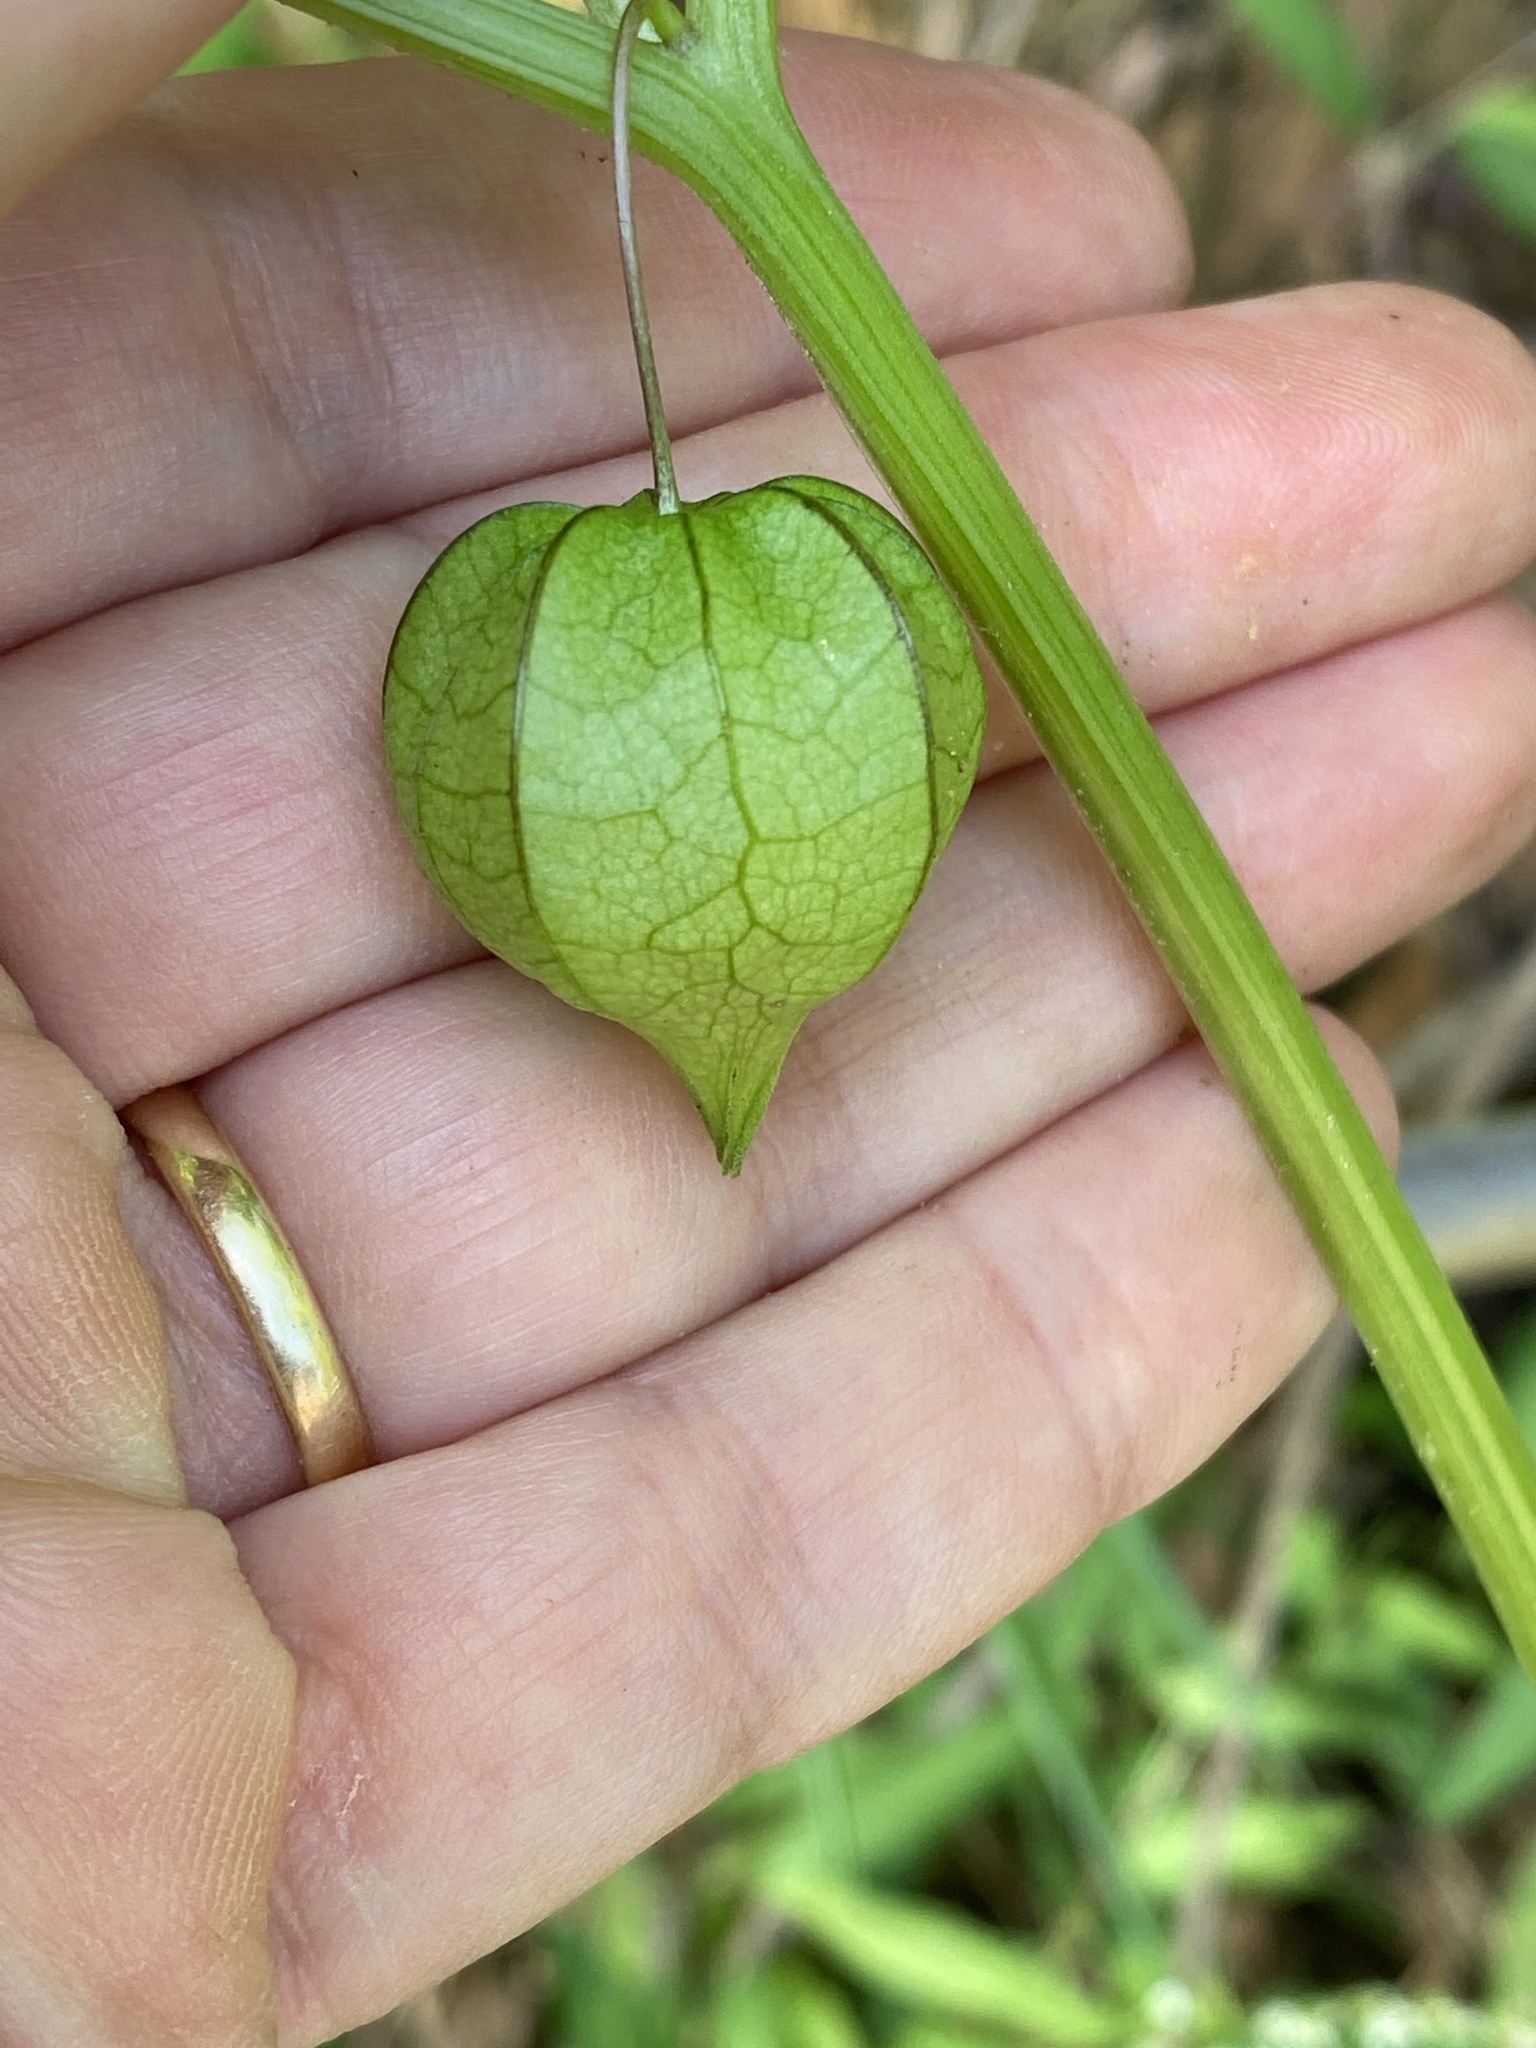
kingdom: Plantae
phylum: Tracheophyta
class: Magnoliopsida
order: Solanales
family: Solanaceae
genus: Physalis
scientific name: Physalis angulata
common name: Angular winter-cherry
